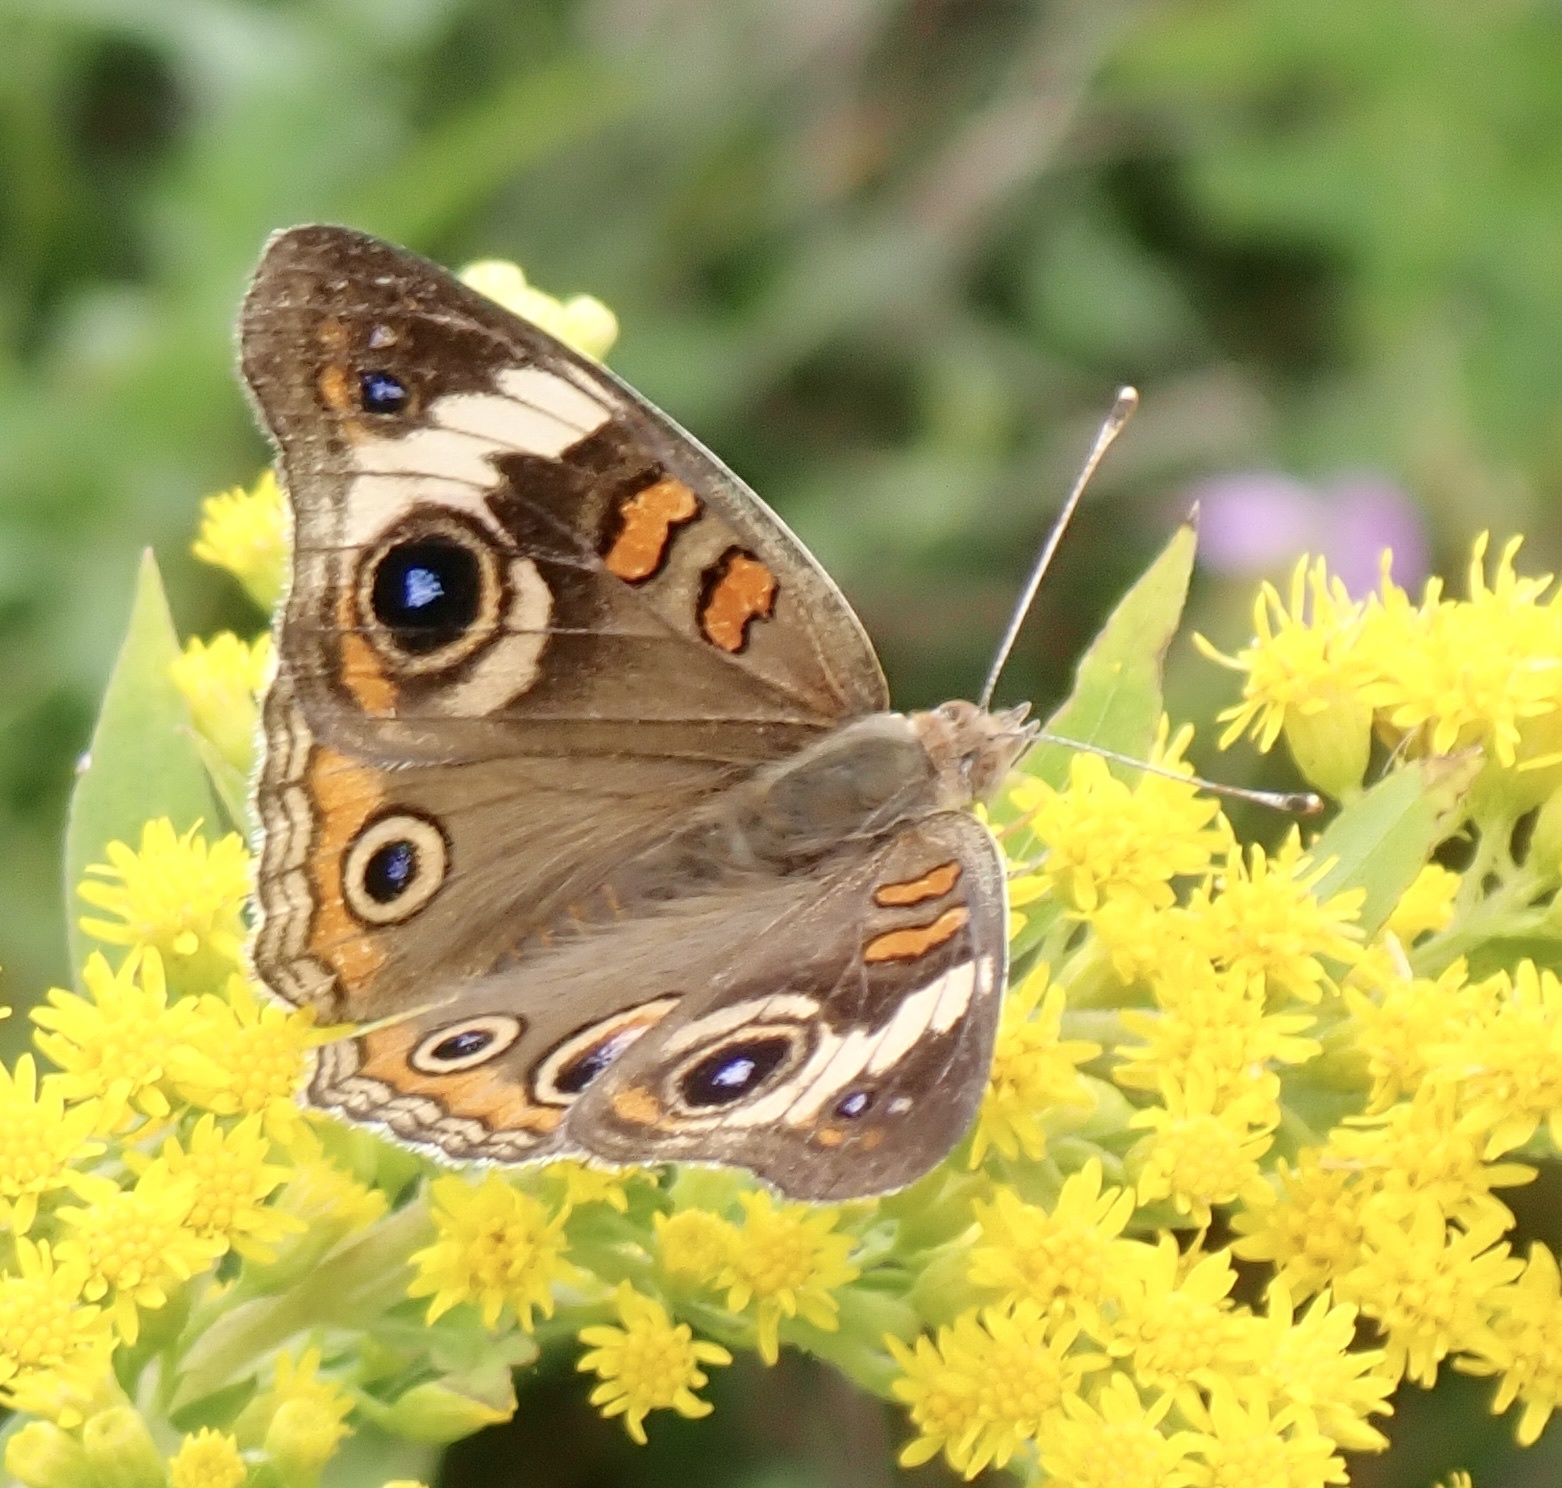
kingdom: Animalia
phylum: Arthropoda
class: Insecta
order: Lepidoptera
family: Nymphalidae
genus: Junonia
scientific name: Junonia coenia
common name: Common buckeye
